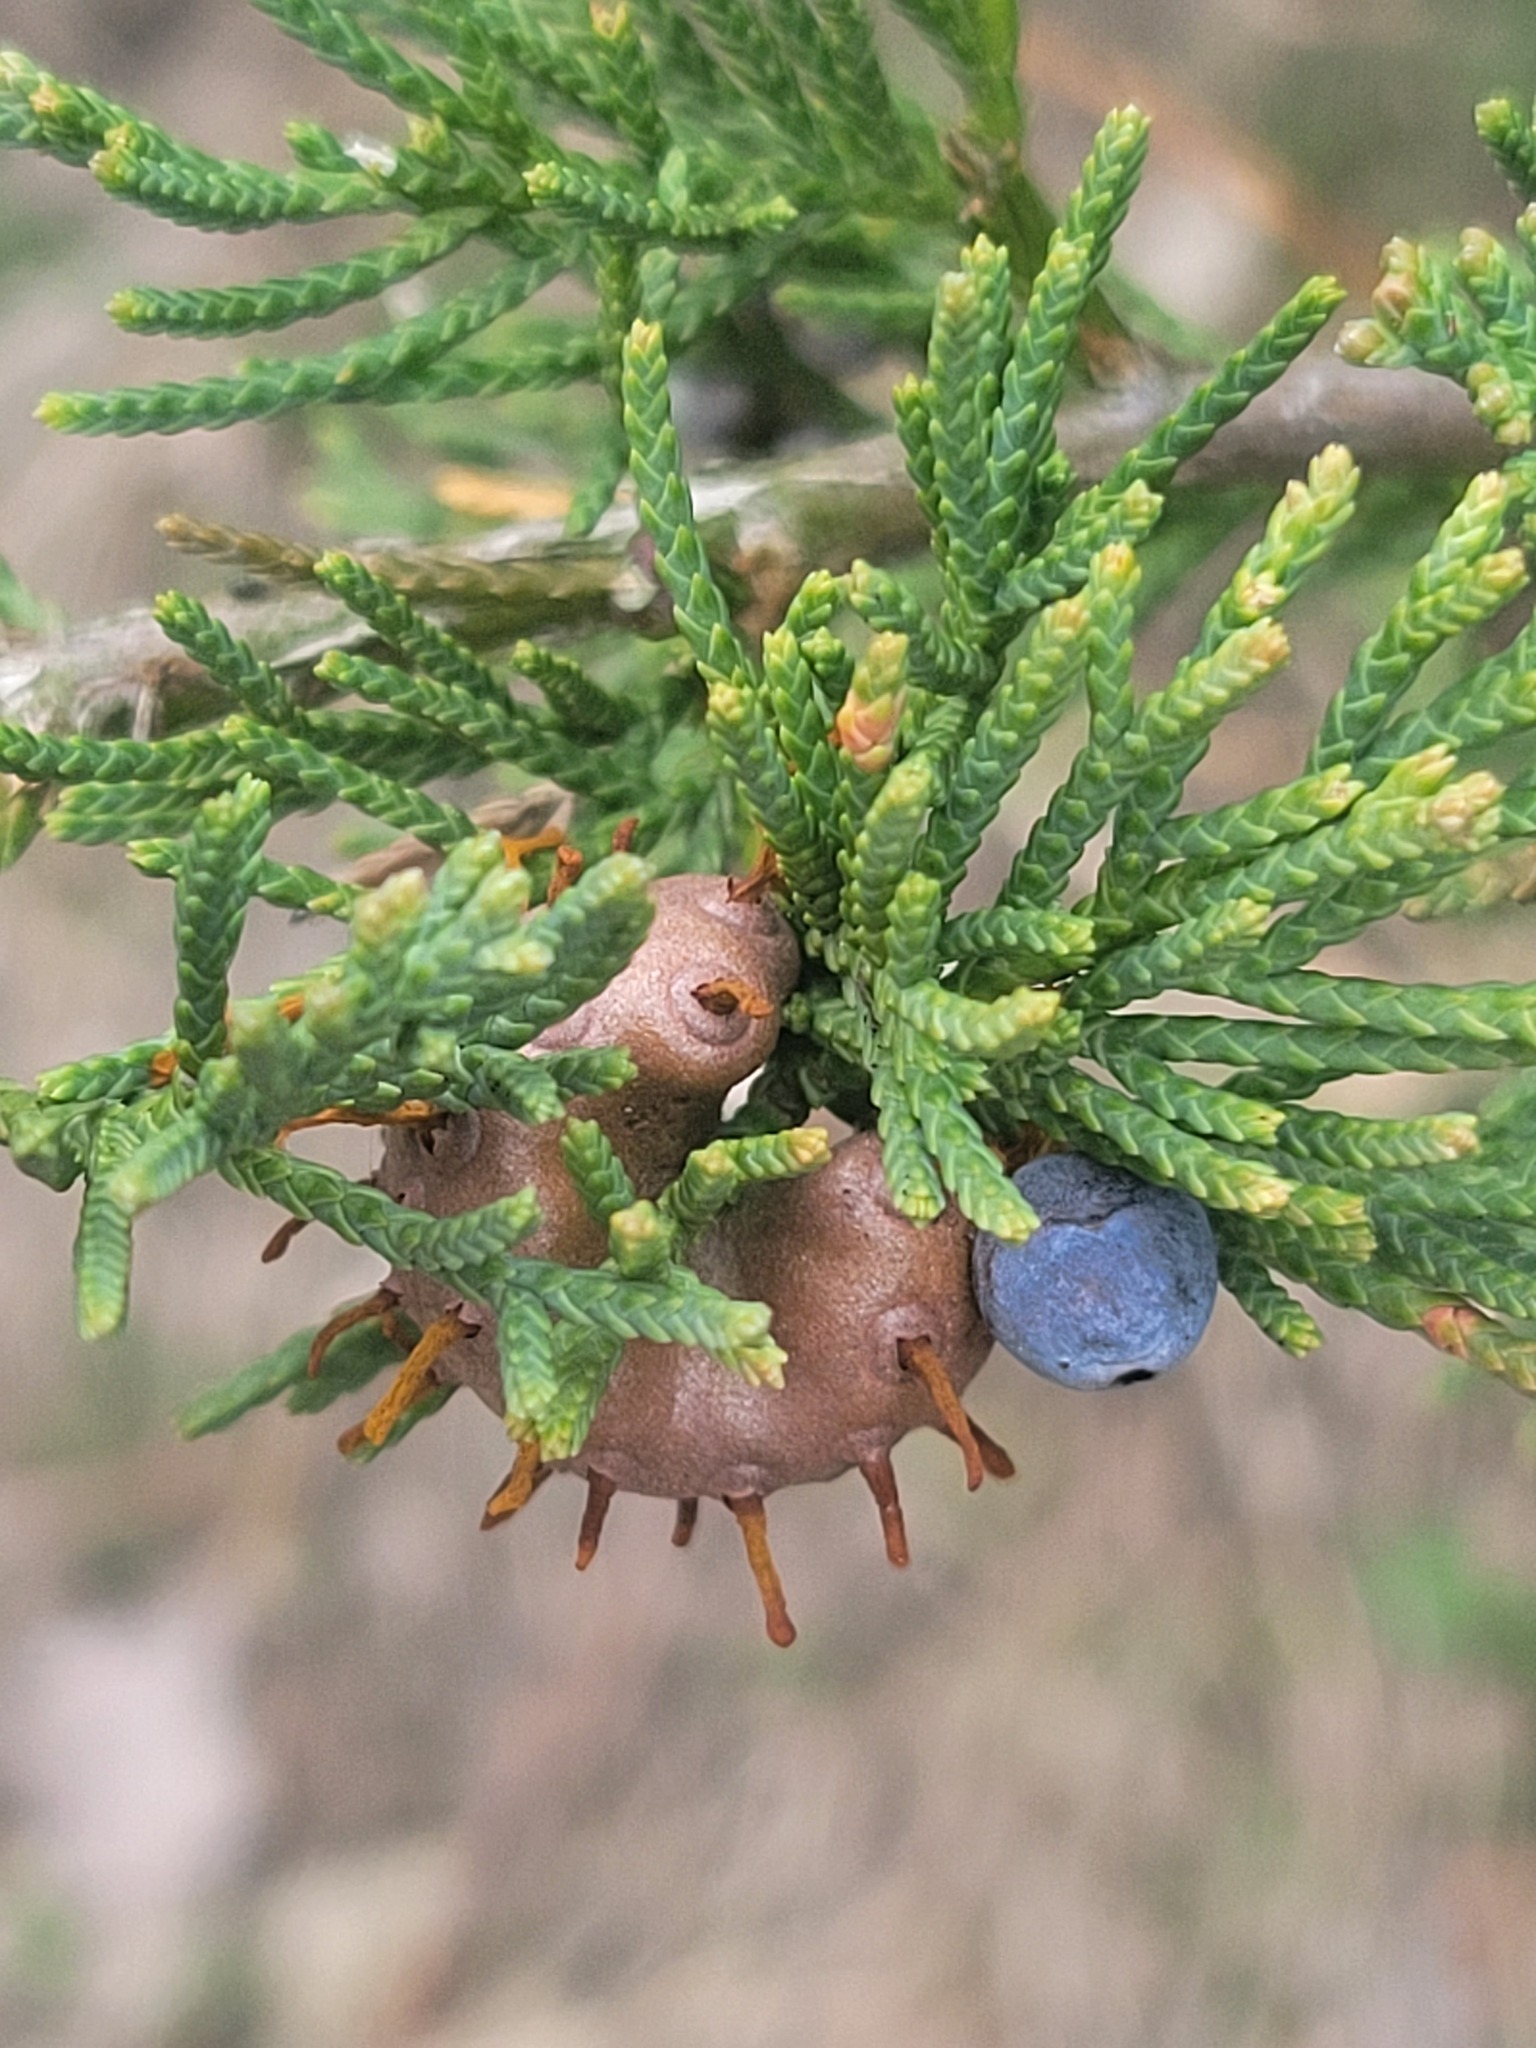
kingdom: Fungi
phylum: Basidiomycota
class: Pucciniomycetes
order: Pucciniales
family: Gymnosporangiaceae
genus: Gymnosporangium
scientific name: Gymnosporangium juniperi-virginianae
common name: Juniper-apple rust
